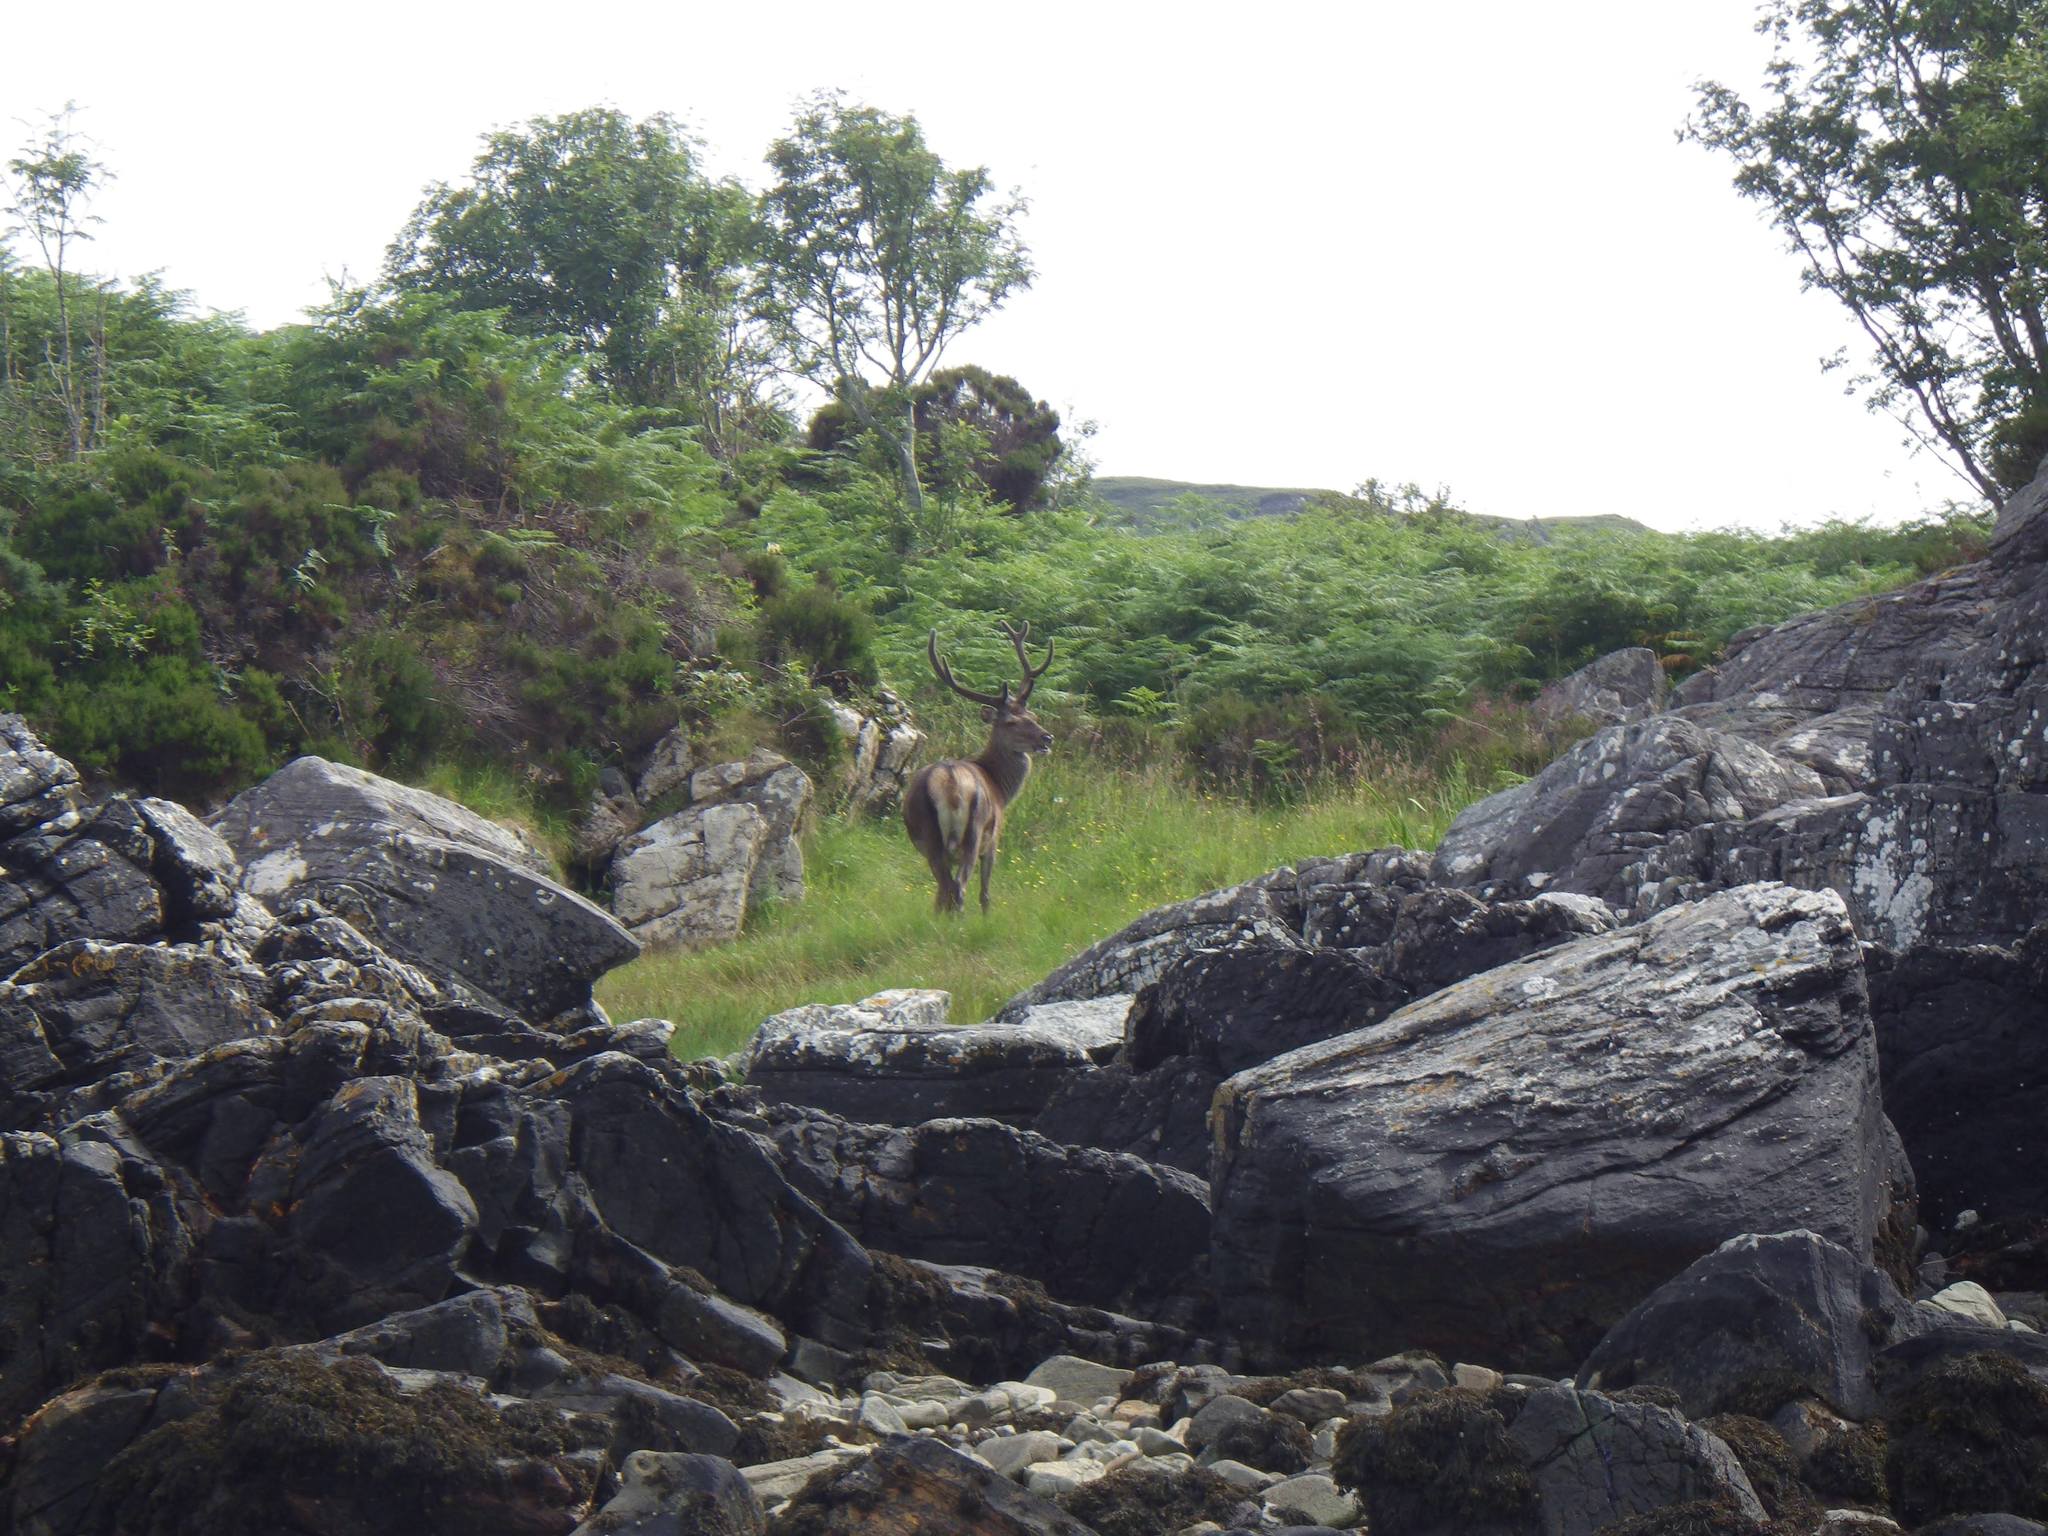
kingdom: Animalia
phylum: Chordata
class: Mammalia
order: Artiodactyla
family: Cervidae
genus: Cervus
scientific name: Cervus elaphus
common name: Red deer
